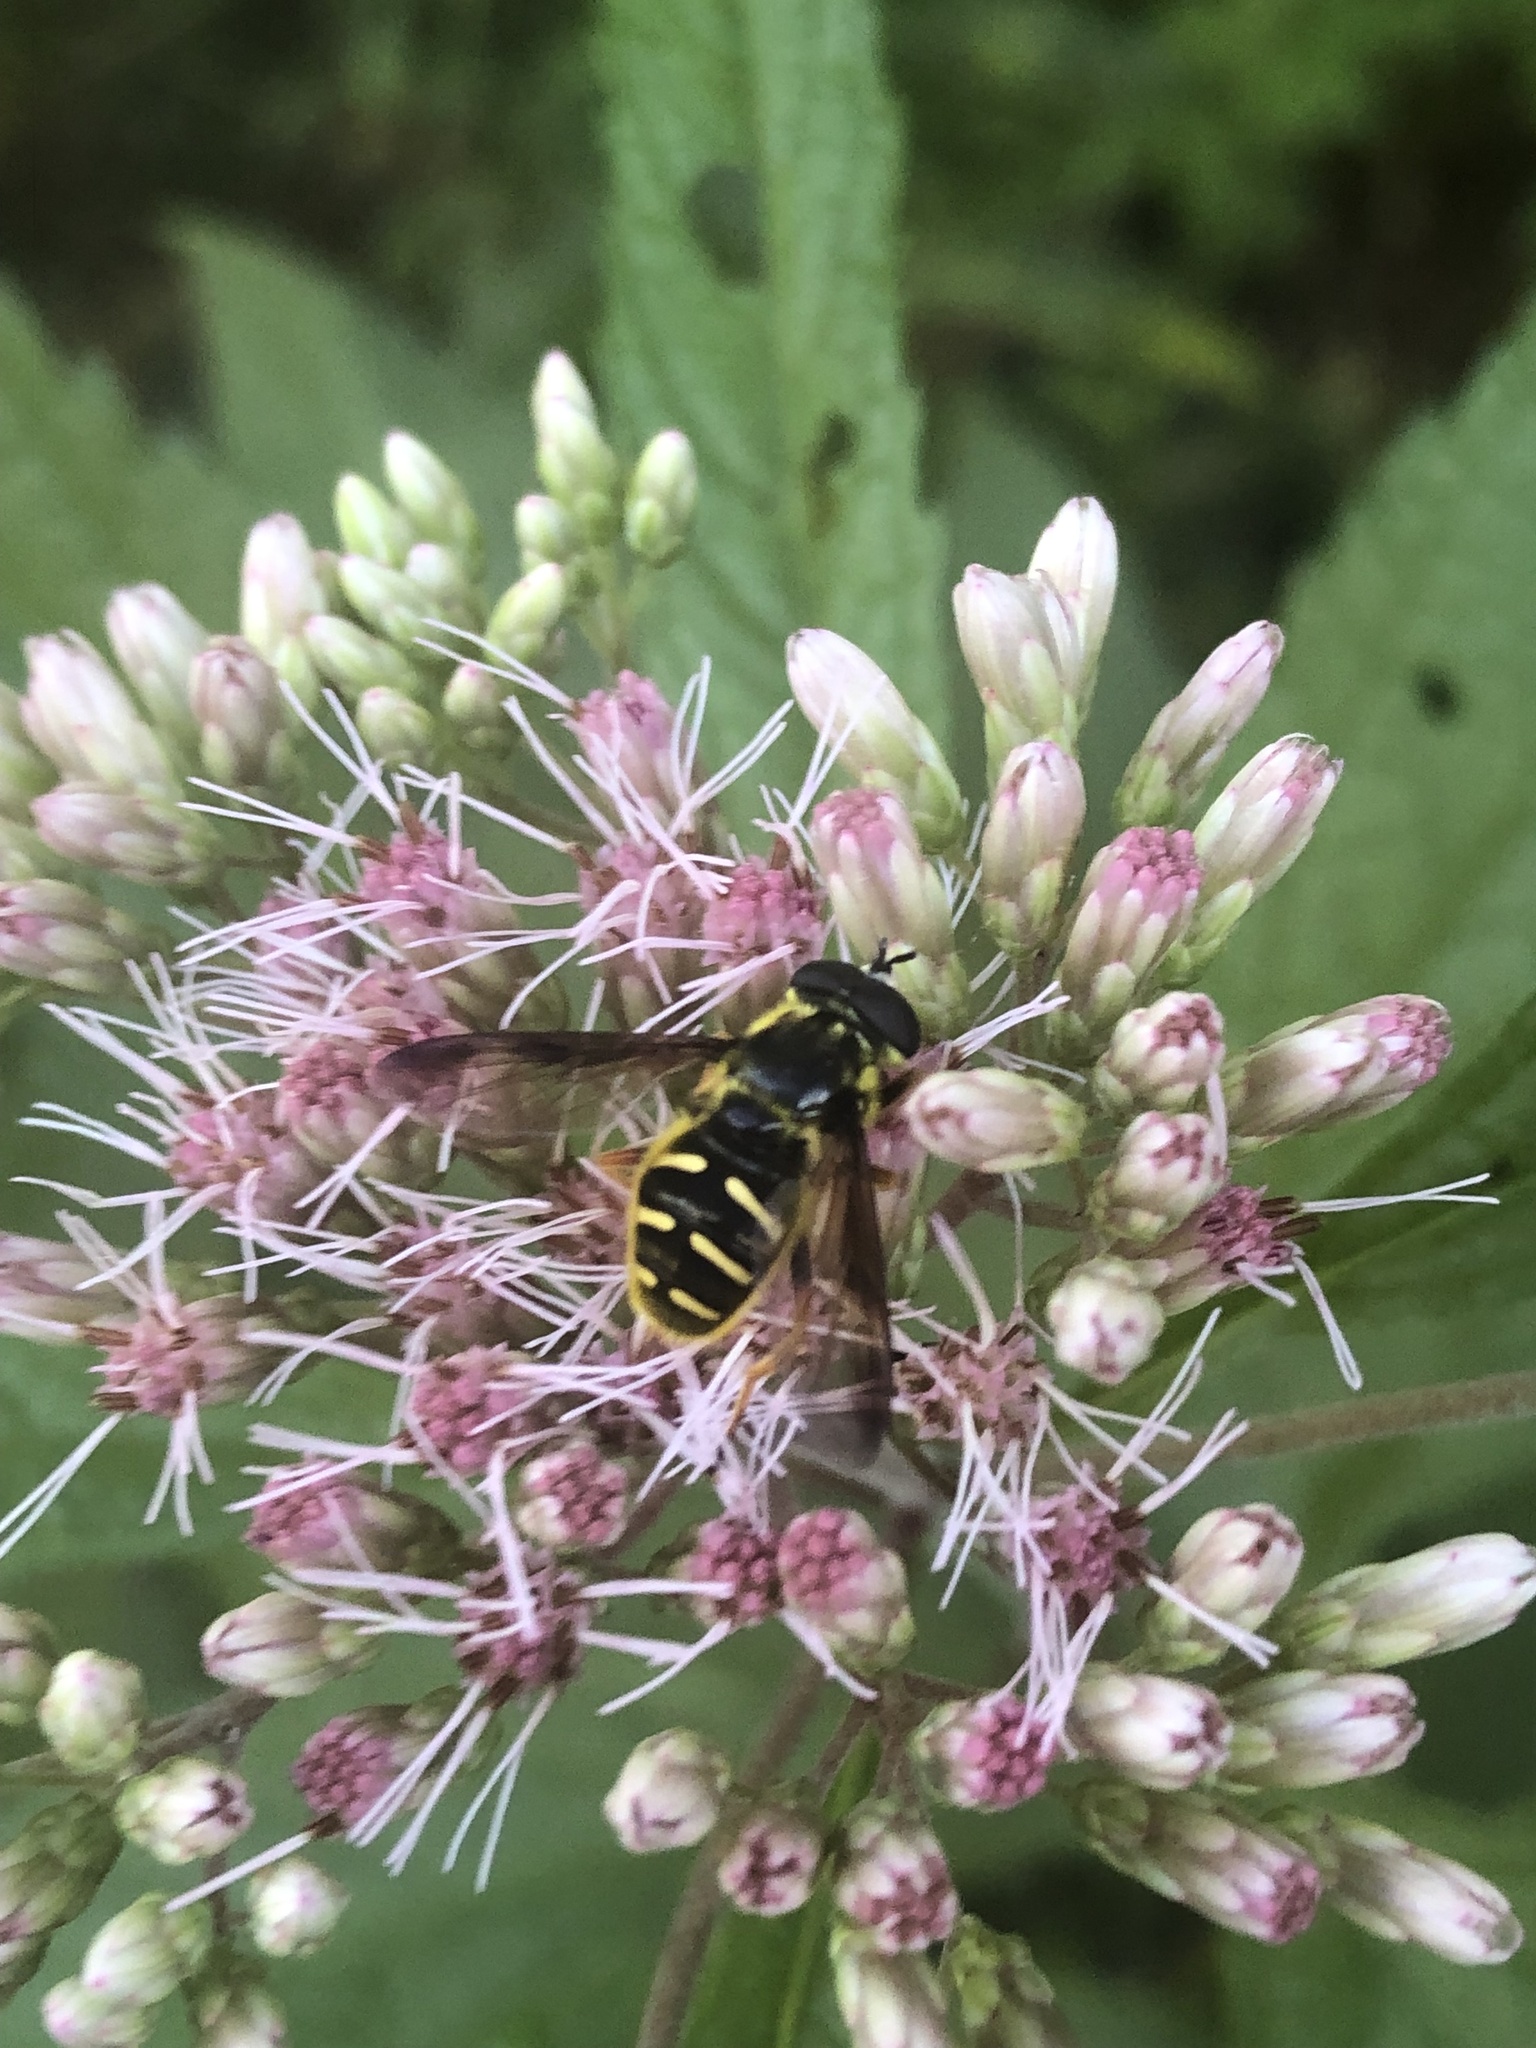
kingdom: Animalia
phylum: Arthropoda
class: Insecta
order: Diptera
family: Syrphidae
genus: Sericomyia
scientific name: Sericomyia chrysotoxoides
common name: Oblique-banded pond fly
